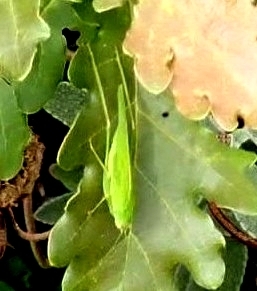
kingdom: Animalia
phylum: Arthropoda
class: Insecta
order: Orthoptera
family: Tettigoniidae
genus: Phaneroptera
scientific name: Phaneroptera nana
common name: Southern sickle bush-cricket
